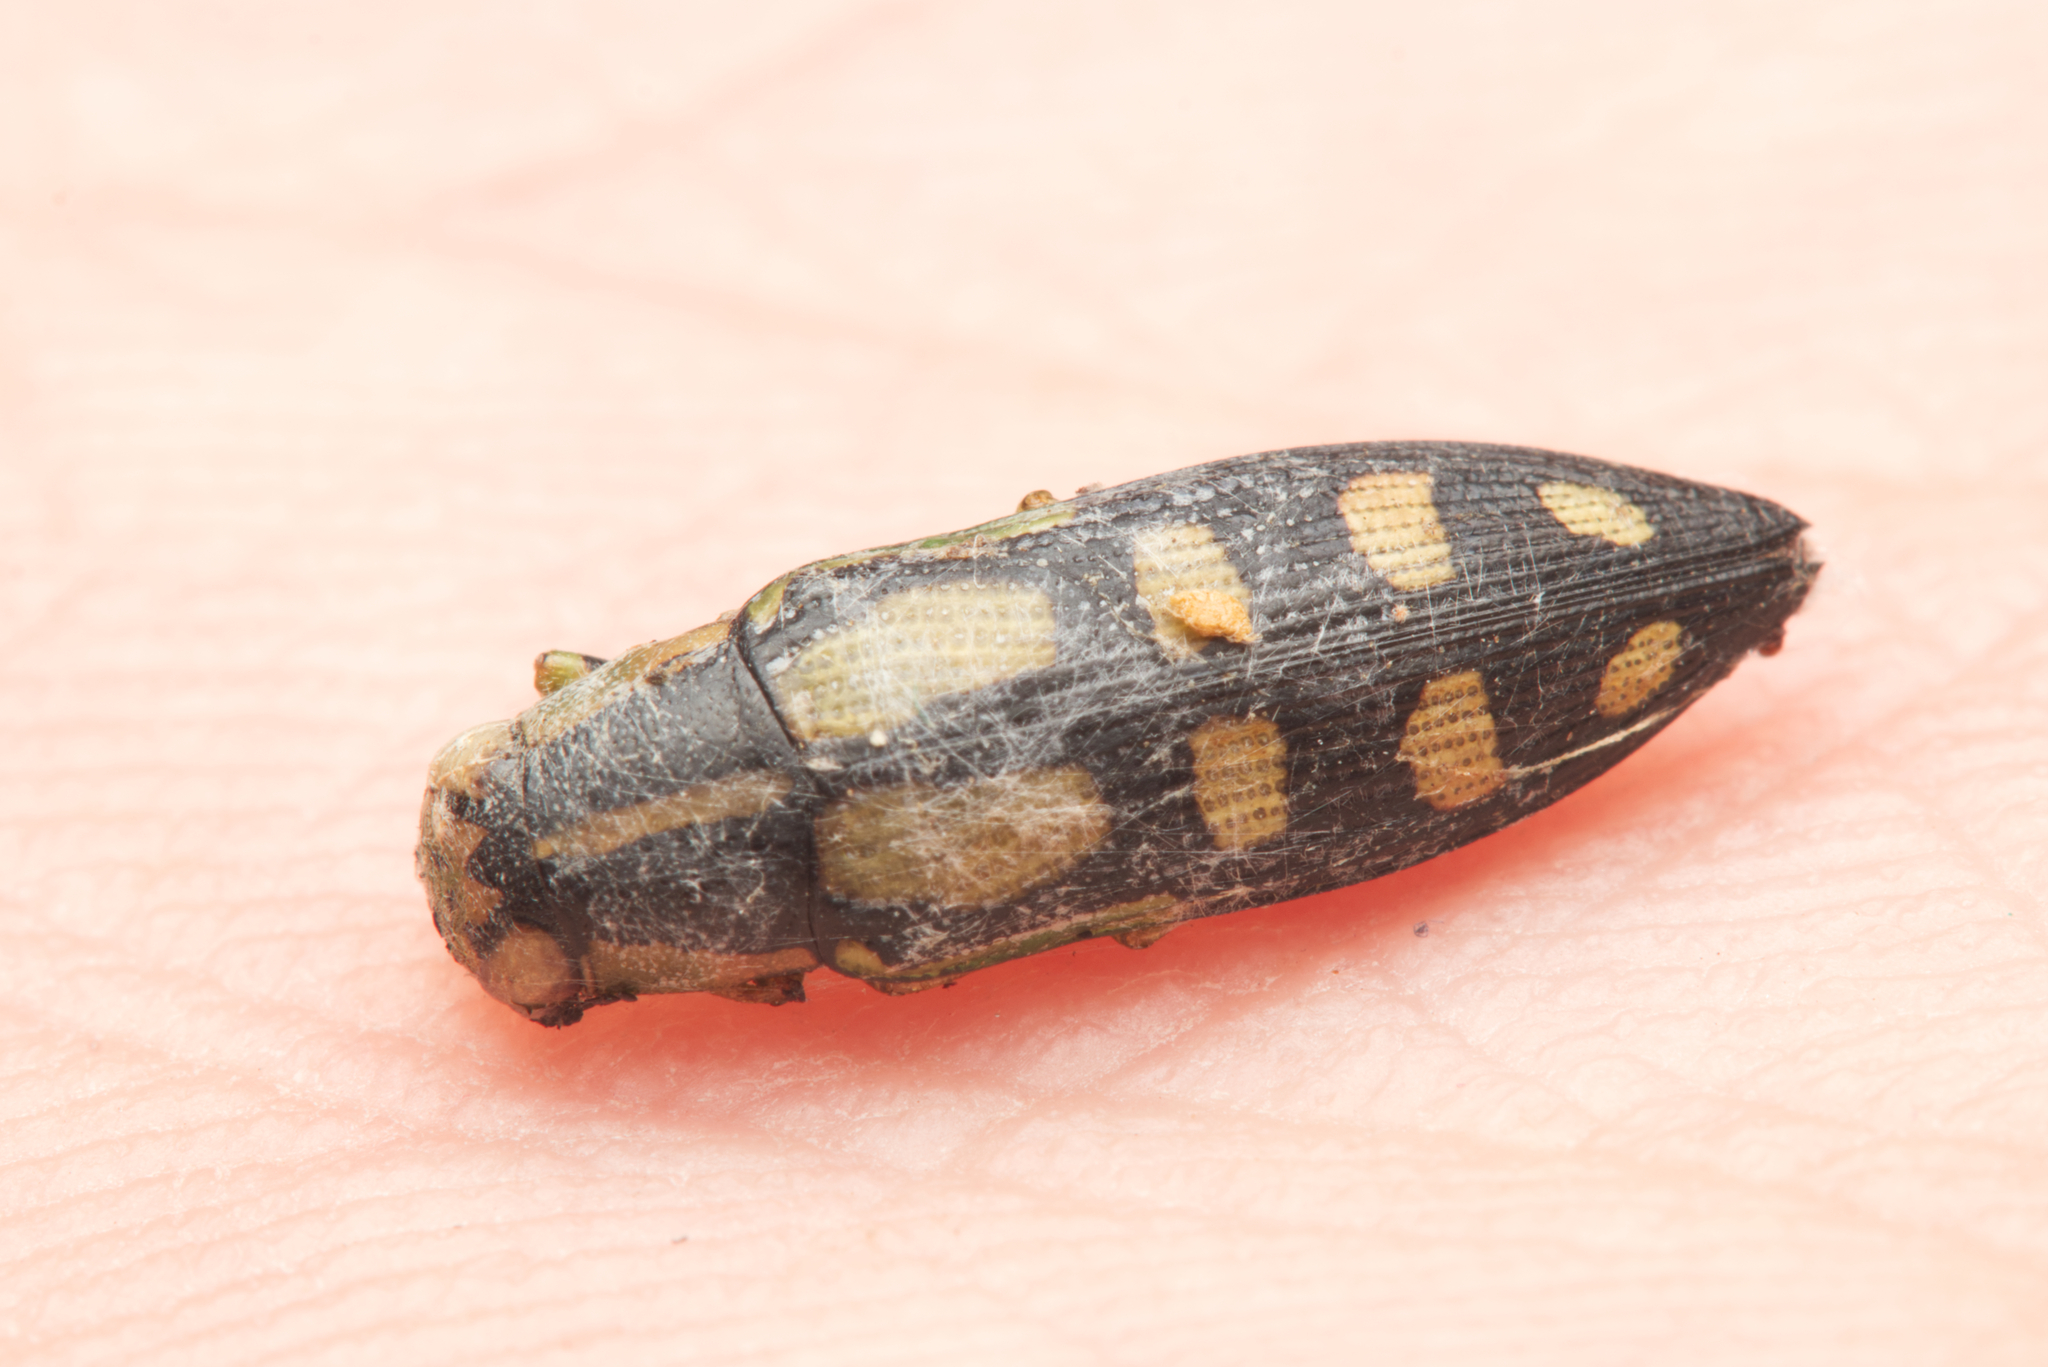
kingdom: Animalia
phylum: Arthropoda
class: Insecta
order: Coleoptera
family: Buprestidae
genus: Diadoxus
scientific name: Diadoxus erythrurus
